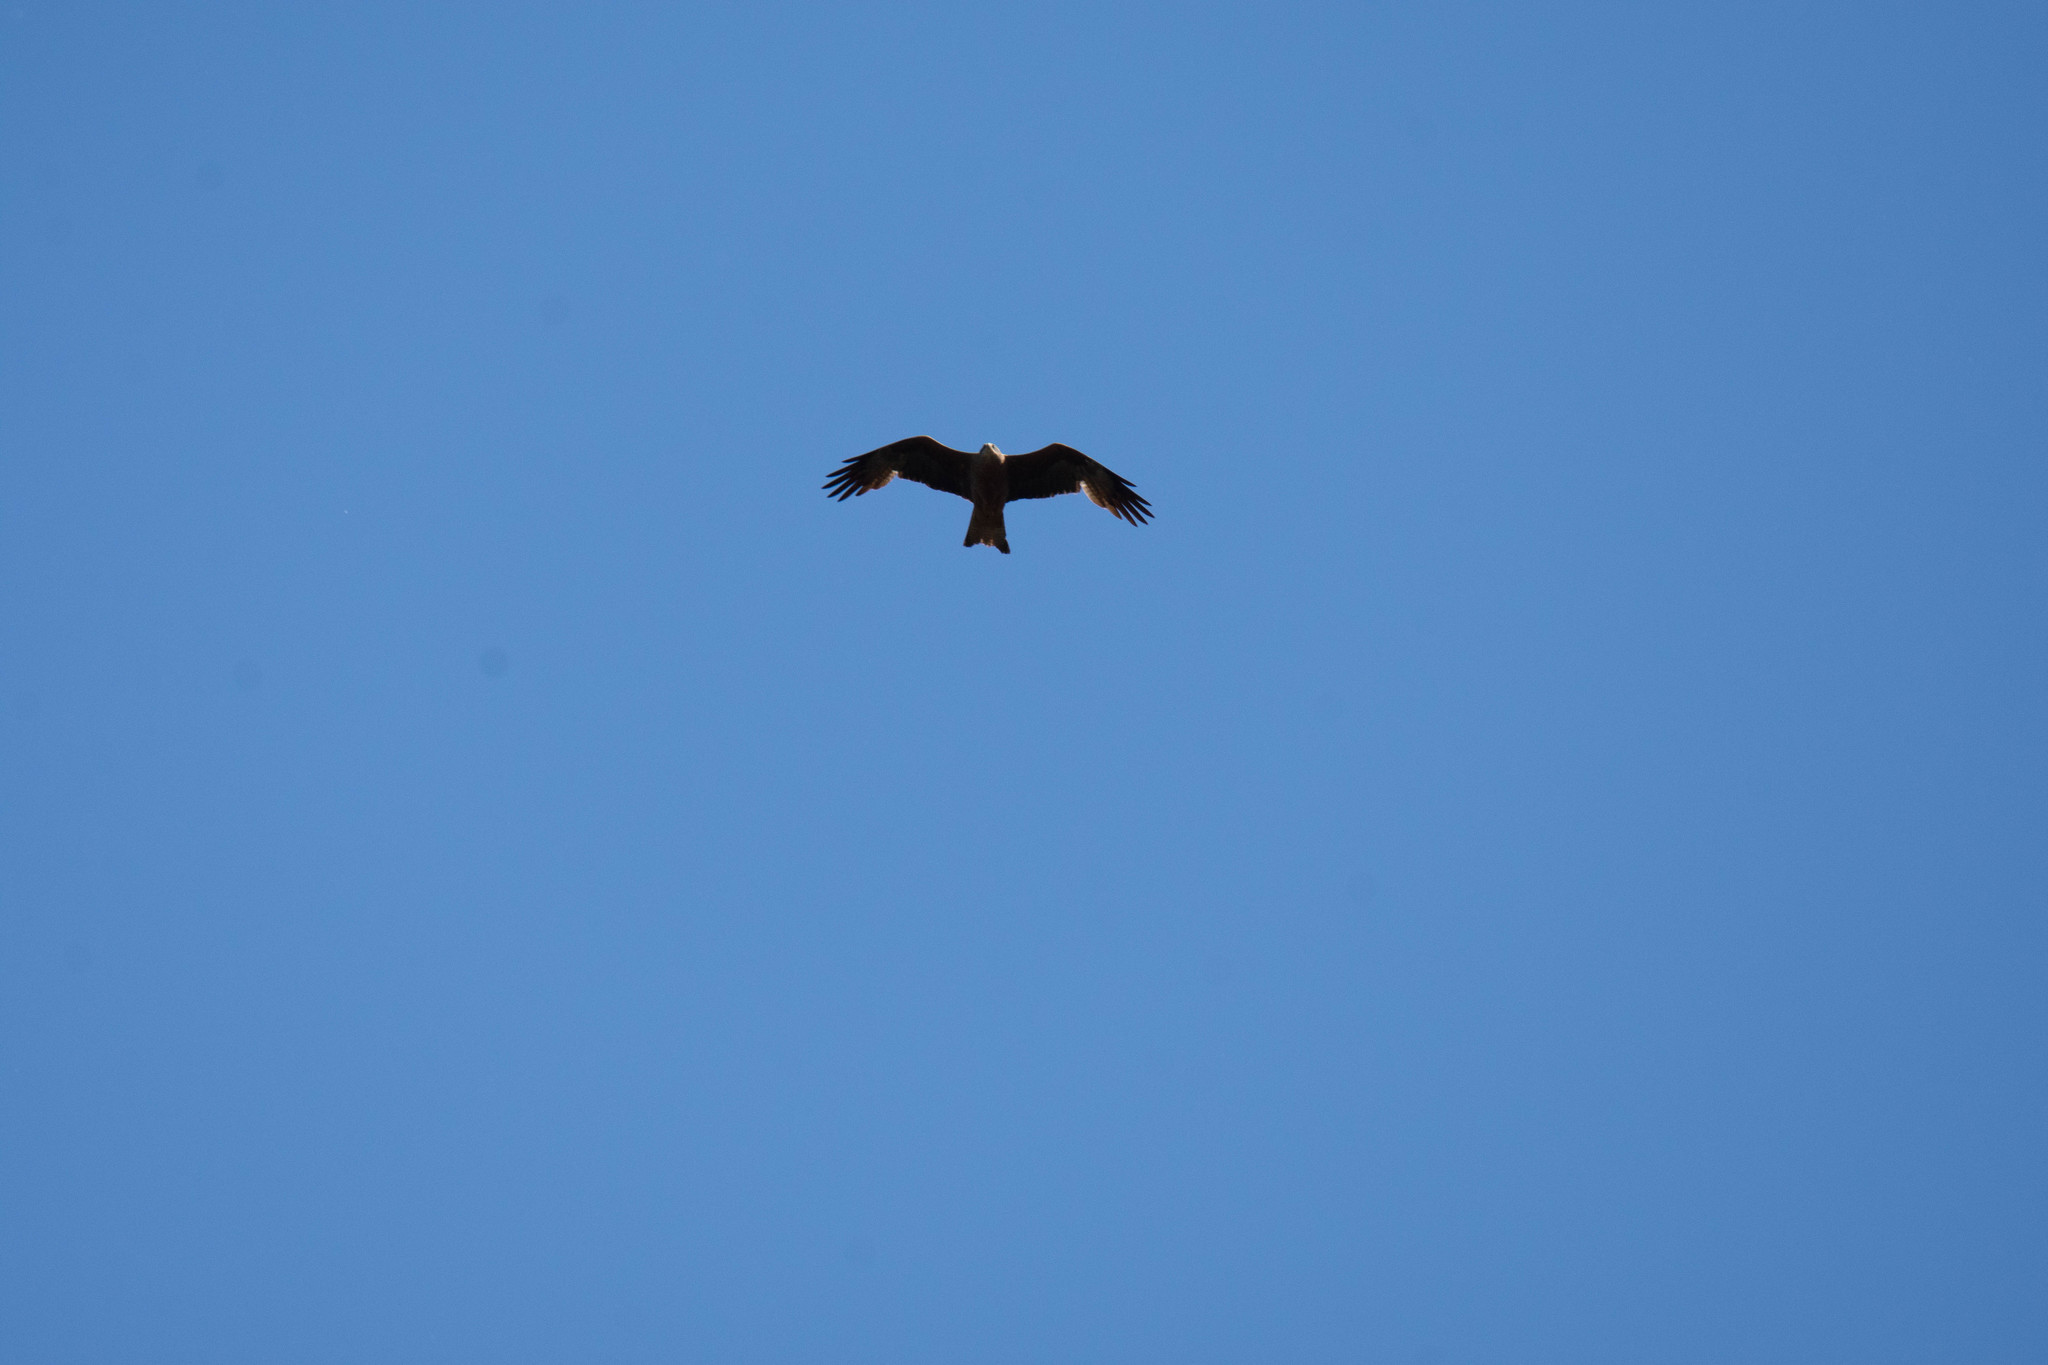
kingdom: Animalia
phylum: Chordata
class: Aves
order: Accipitriformes
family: Accipitridae
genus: Milvus
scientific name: Milvus migrans
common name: Black kite
